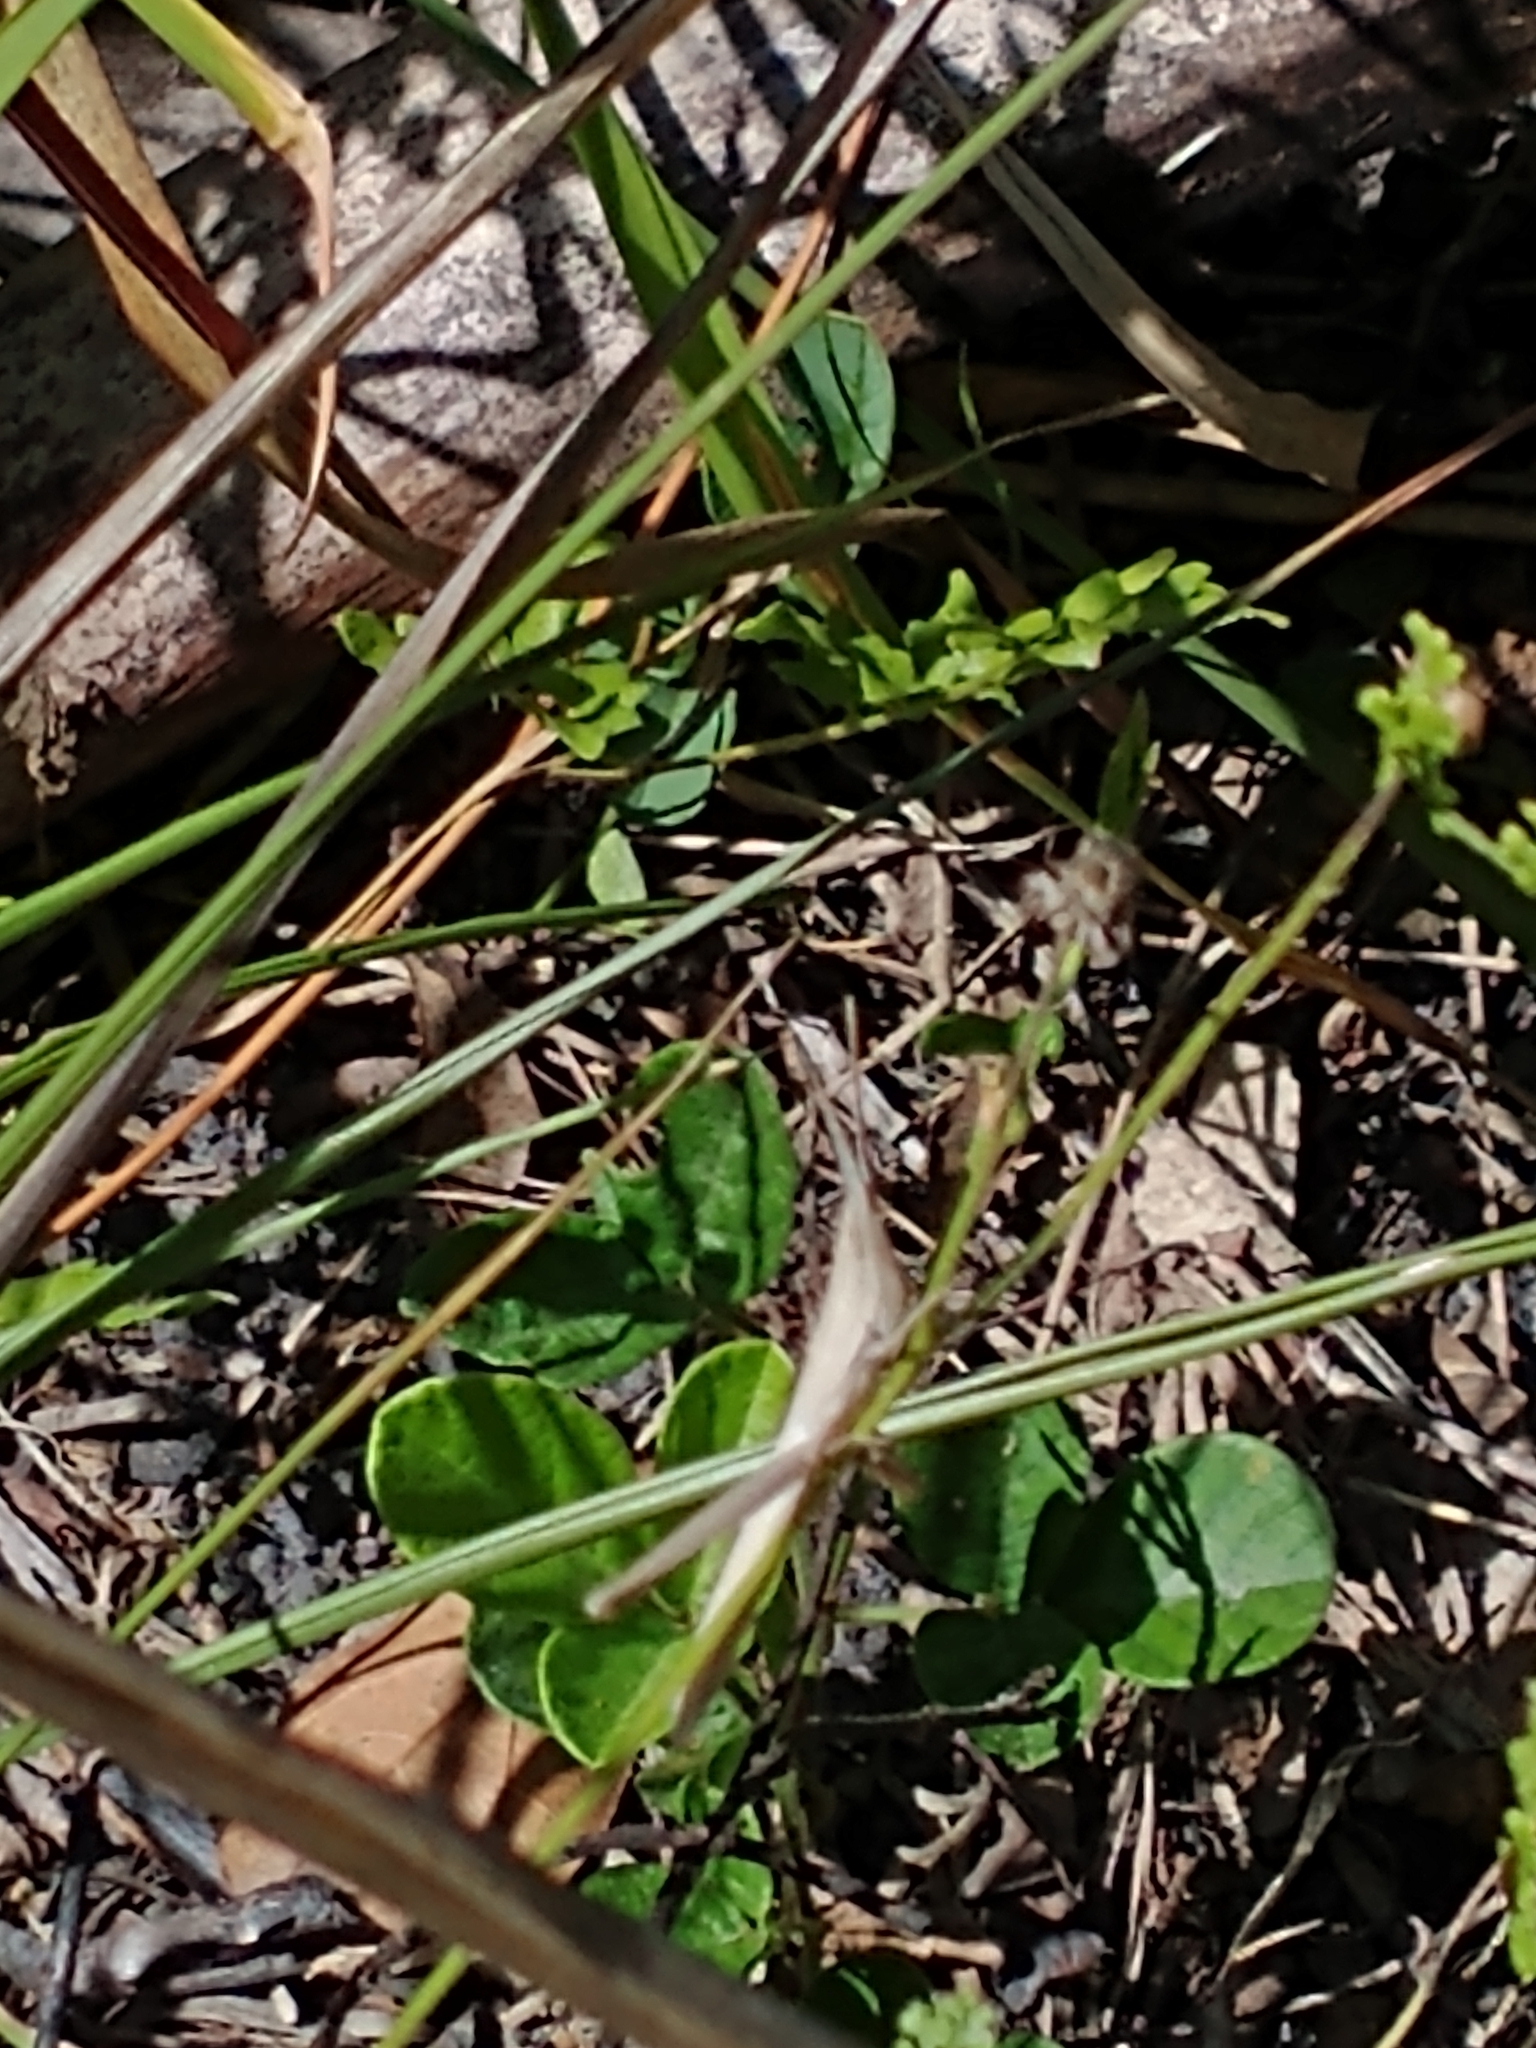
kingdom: Animalia
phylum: Arthropoda
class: Insecta
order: Orthoptera
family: Acrididae
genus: Achurum
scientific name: Achurum carinatum
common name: Long-headed toothpick grasshopper
